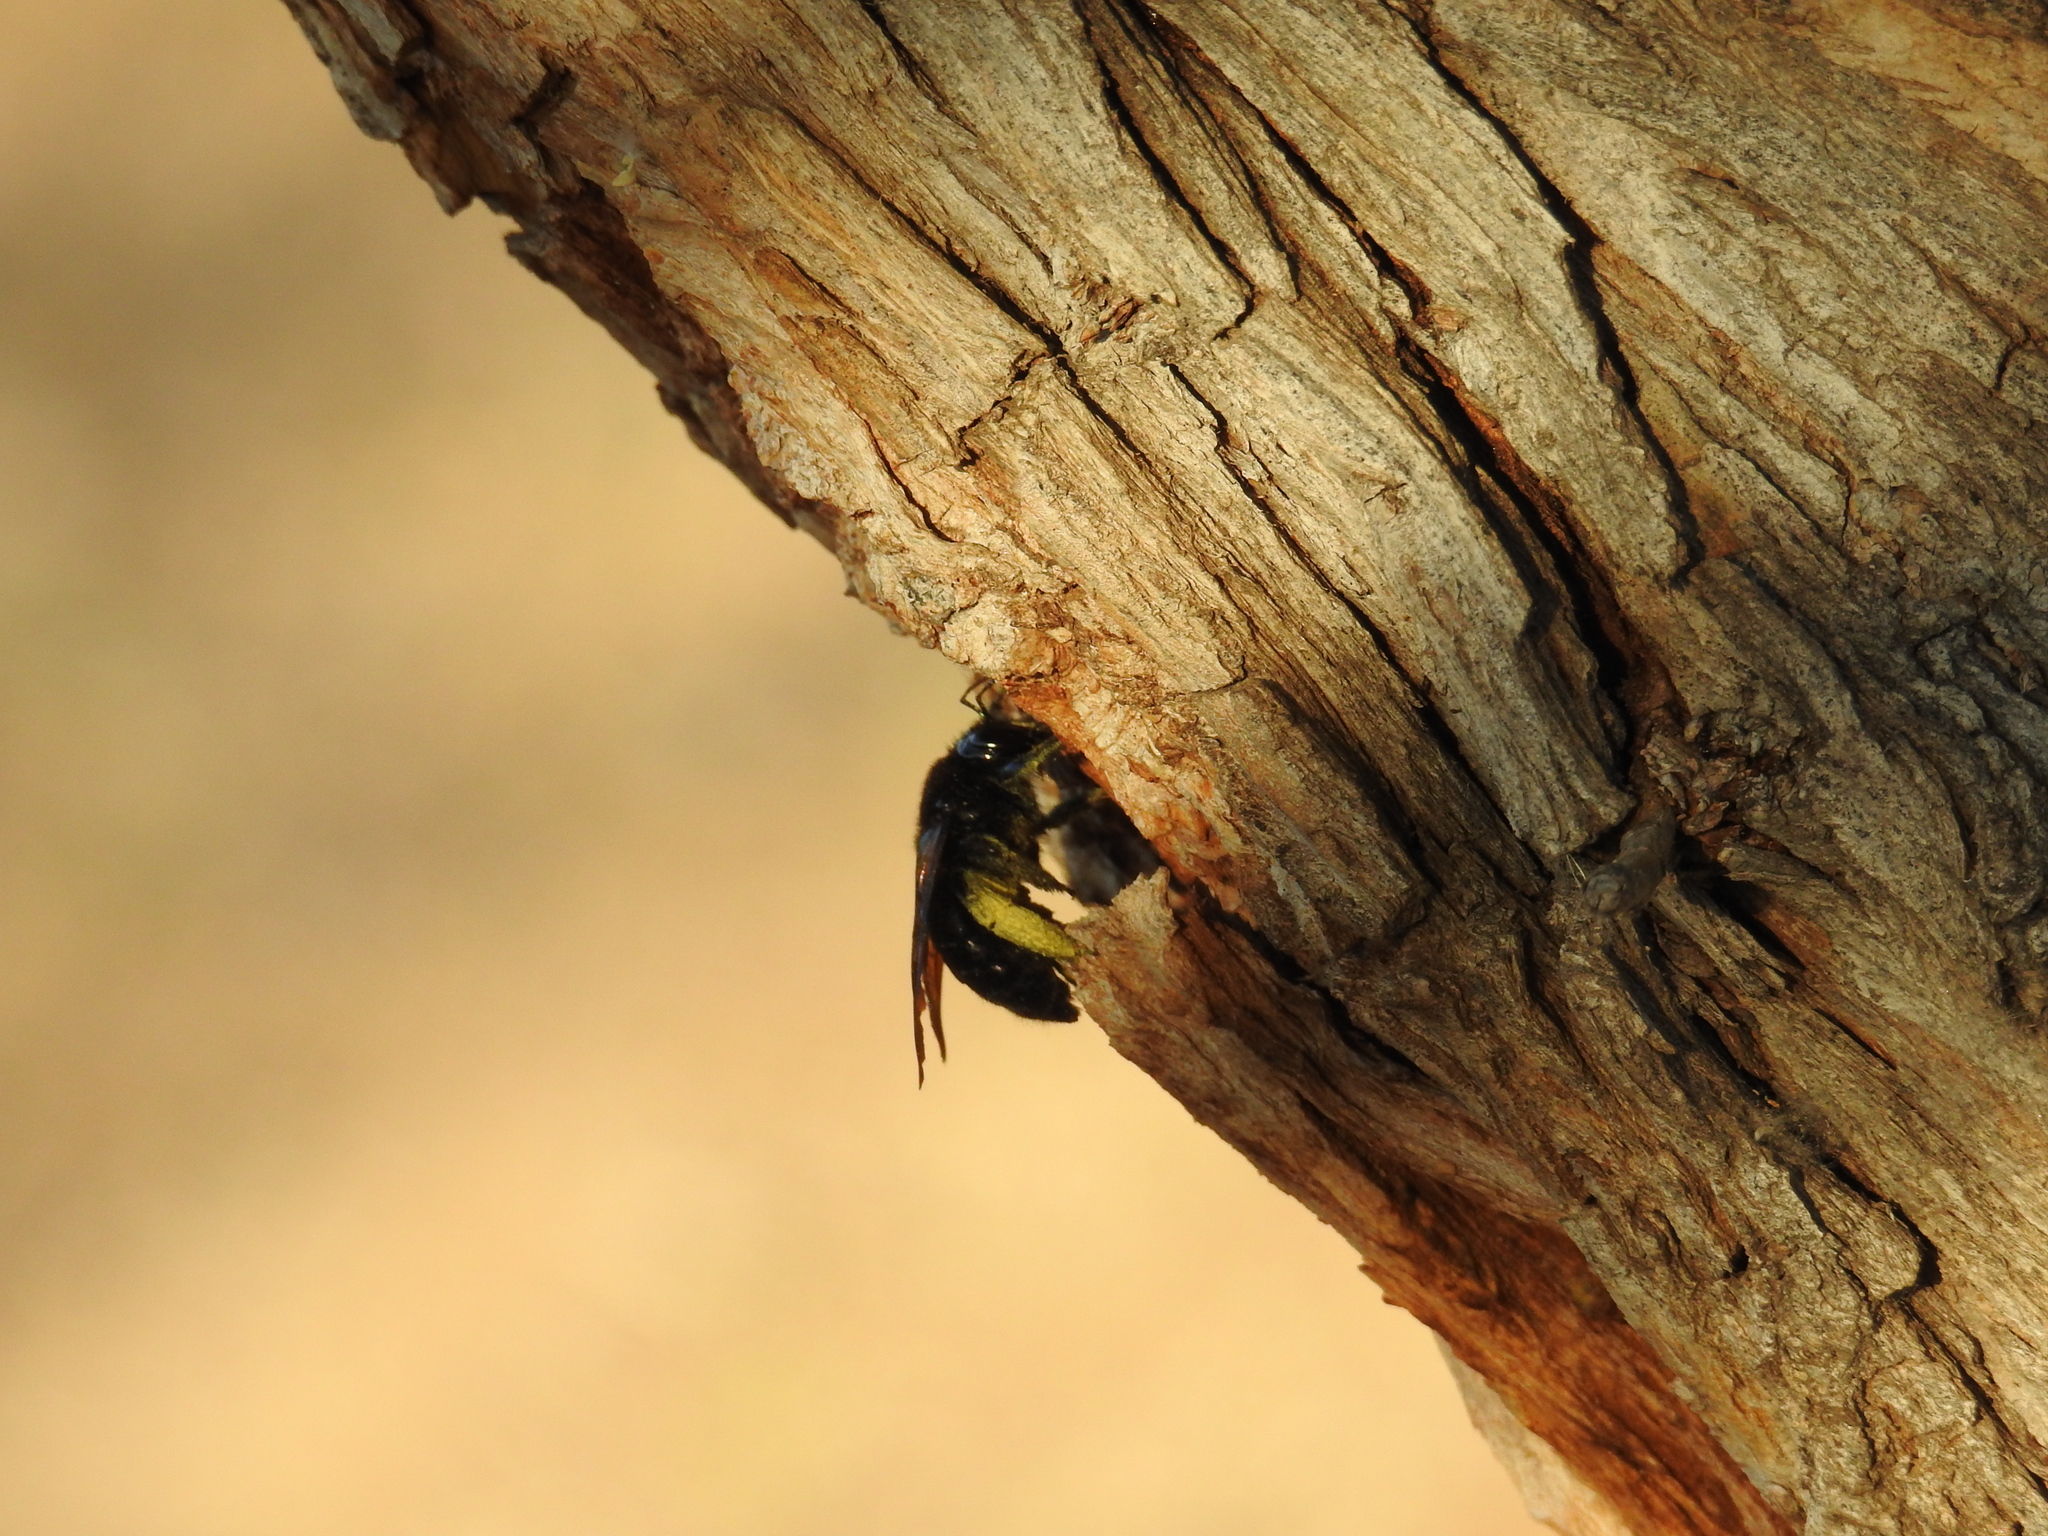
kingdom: Animalia
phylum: Arthropoda
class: Insecta
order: Hymenoptera
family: Apidae
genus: Xylocopa
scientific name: Xylocopa sonorina
